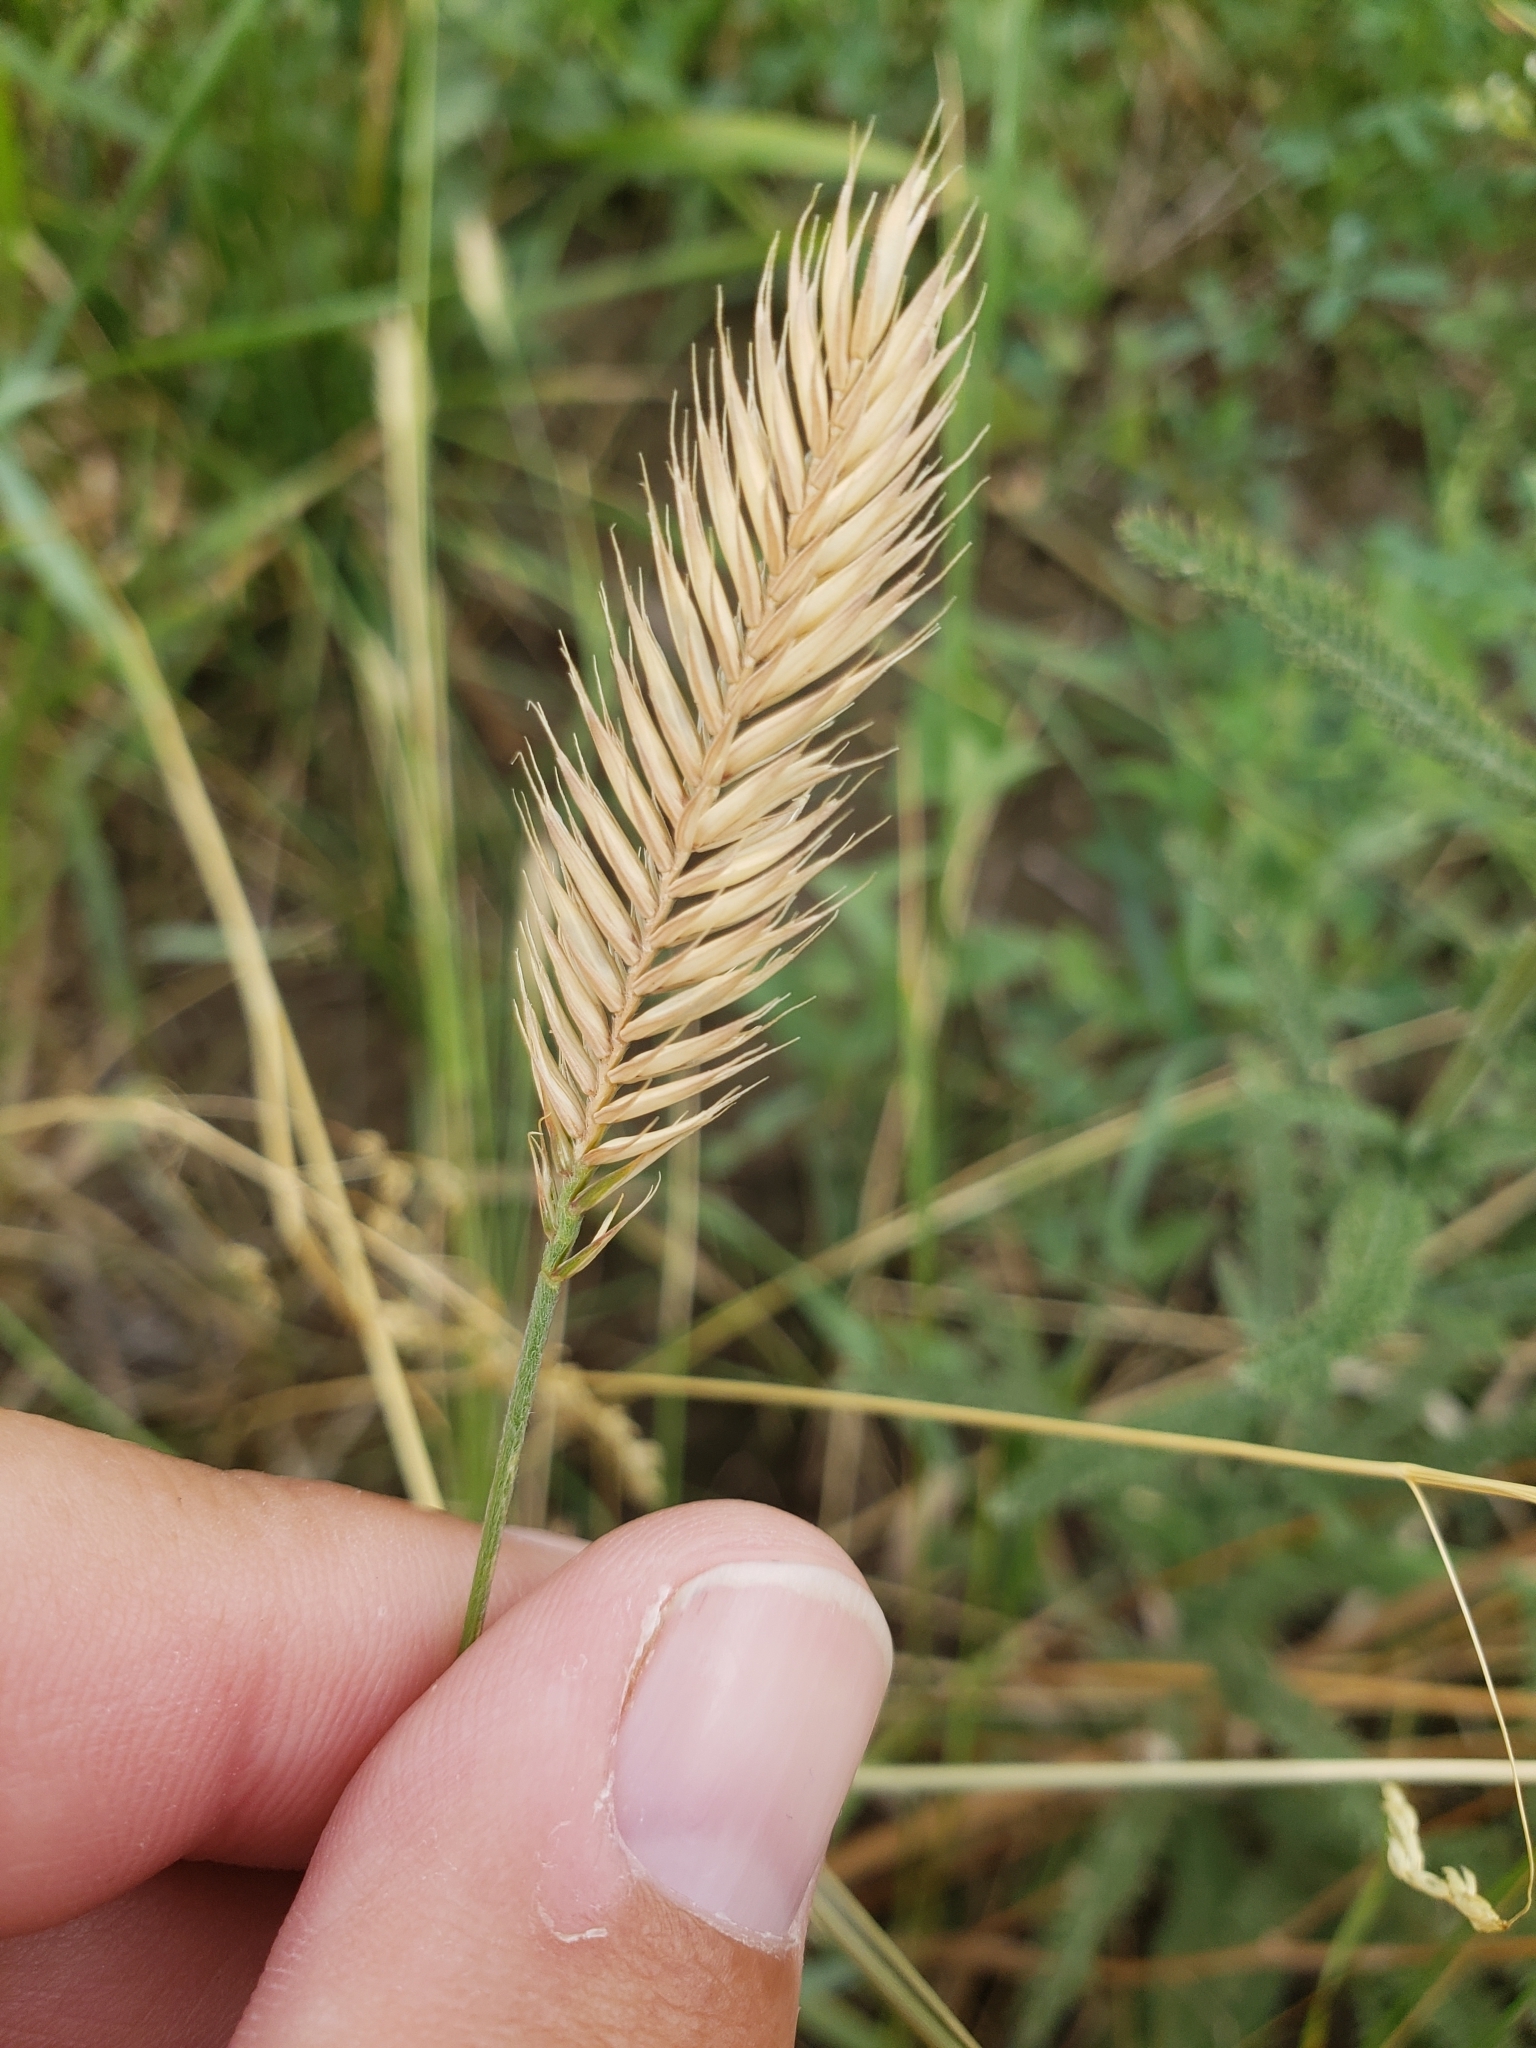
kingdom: Plantae
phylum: Tracheophyta
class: Liliopsida
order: Poales
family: Poaceae
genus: Agropyron
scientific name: Agropyron cristatum
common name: Crested wheatgrass
